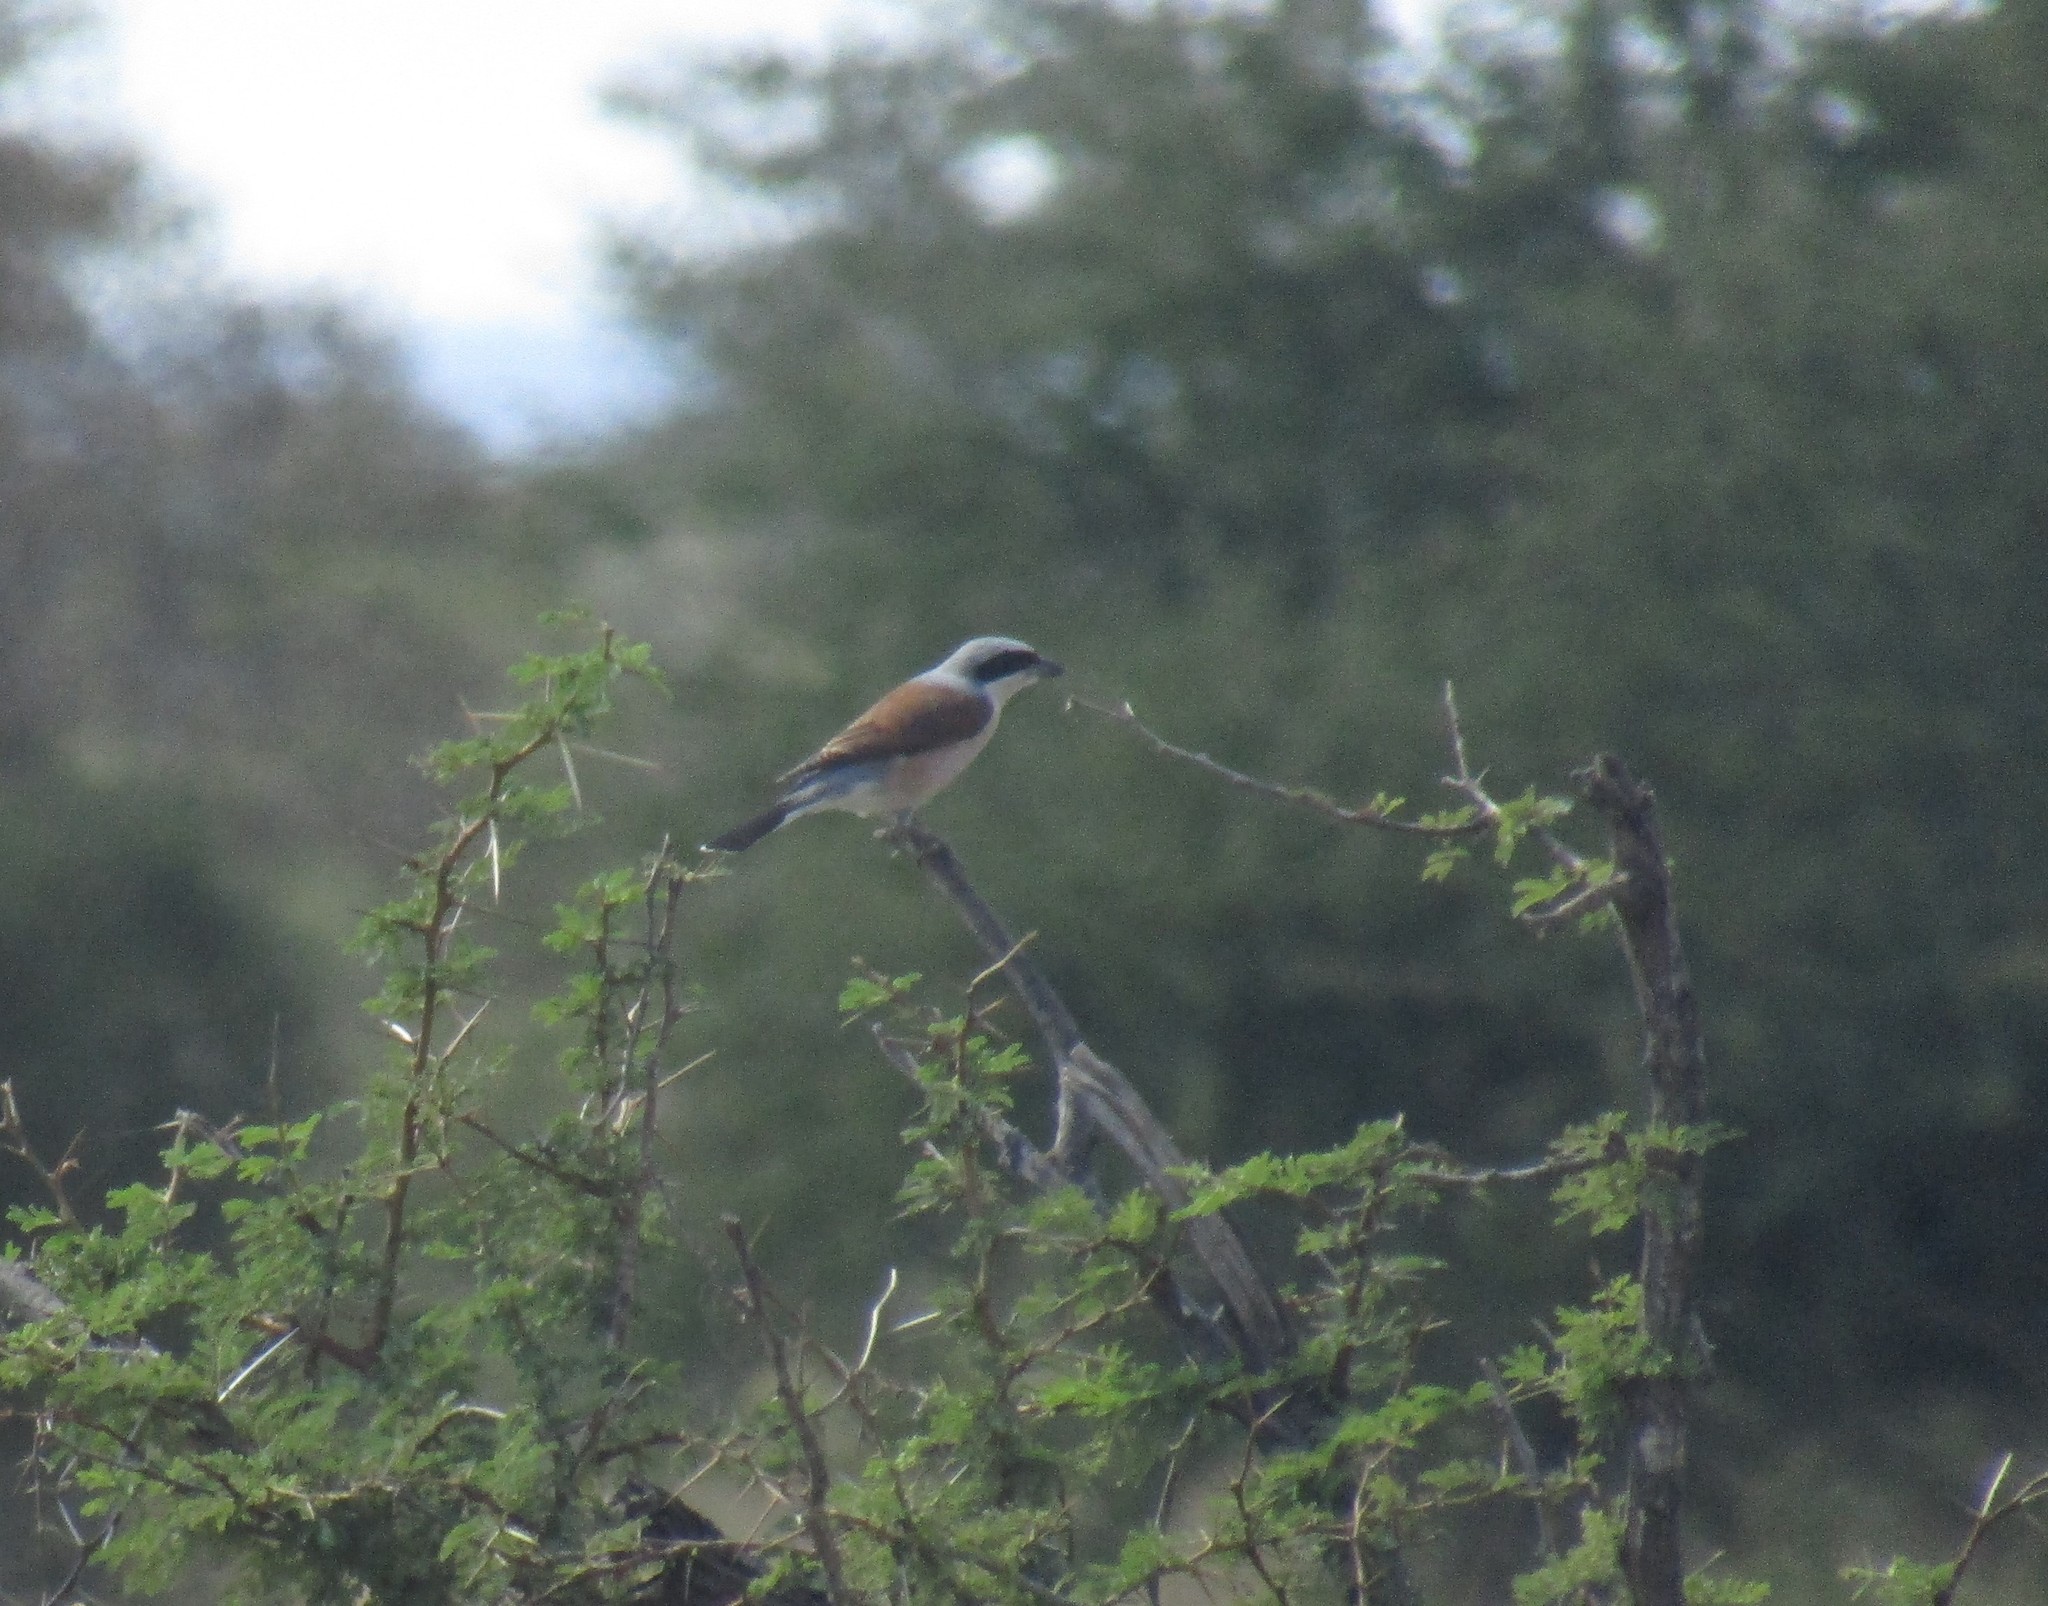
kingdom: Animalia
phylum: Chordata
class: Aves
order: Passeriformes
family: Laniidae
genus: Lanius
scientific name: Lanius collurio
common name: Red-backed shrike
